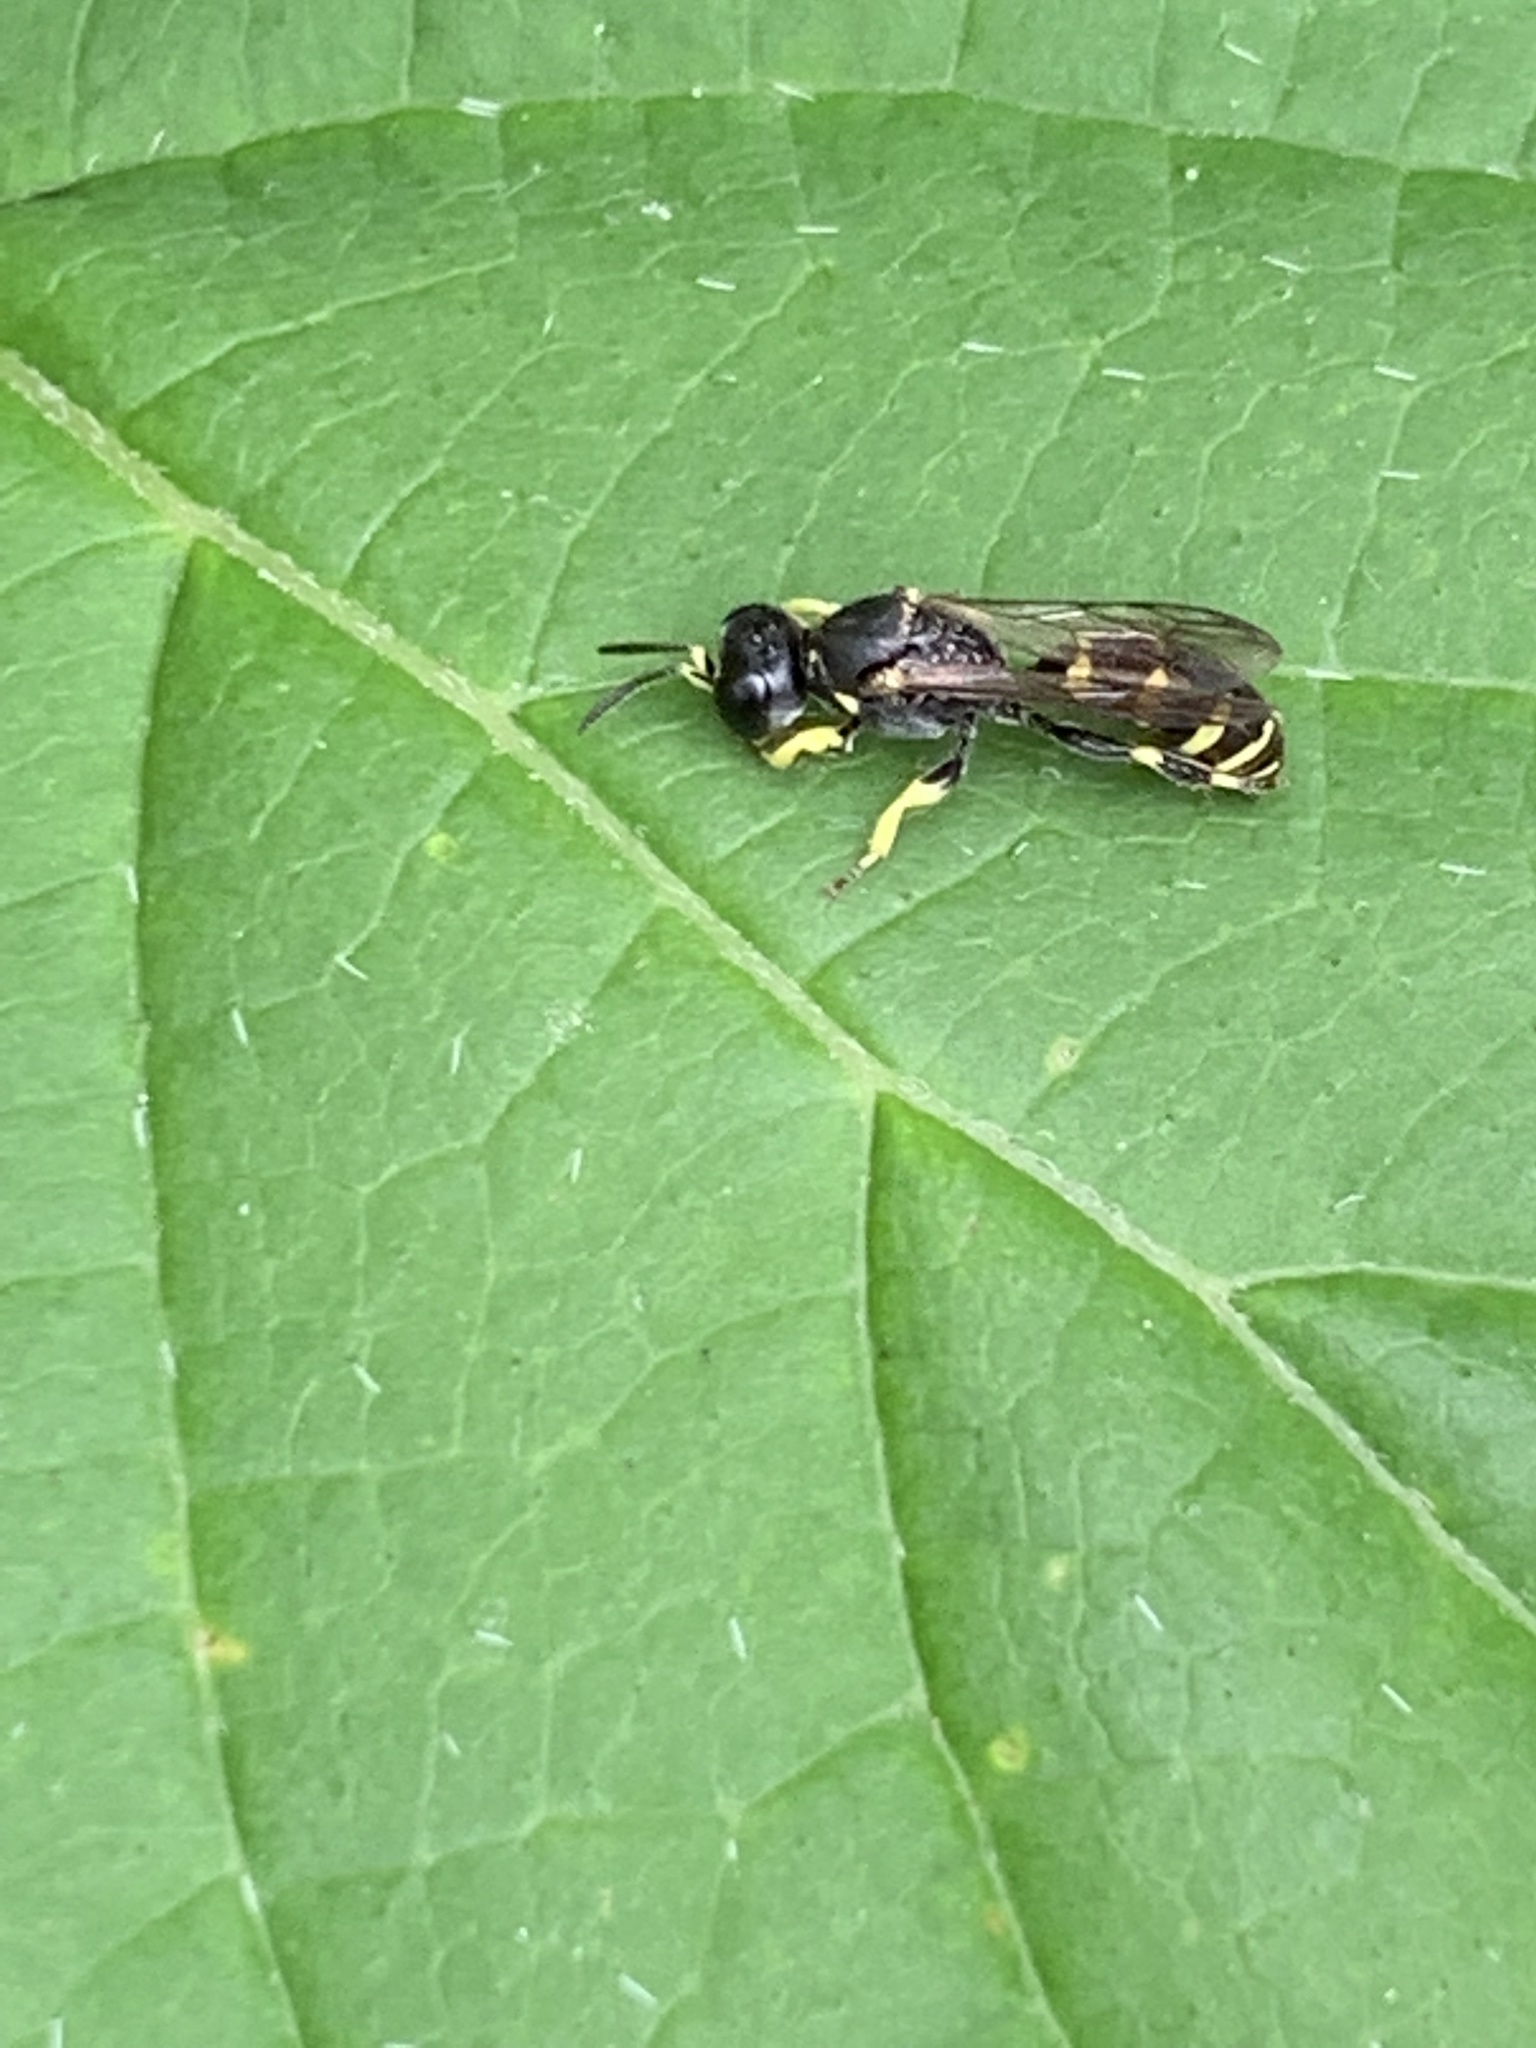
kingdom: Animalia
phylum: Arthropoda
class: Insecta
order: Hymenoptera
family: Crabronidae
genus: Ectemnius
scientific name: Ectemnius continuus
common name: Common ectemnius
